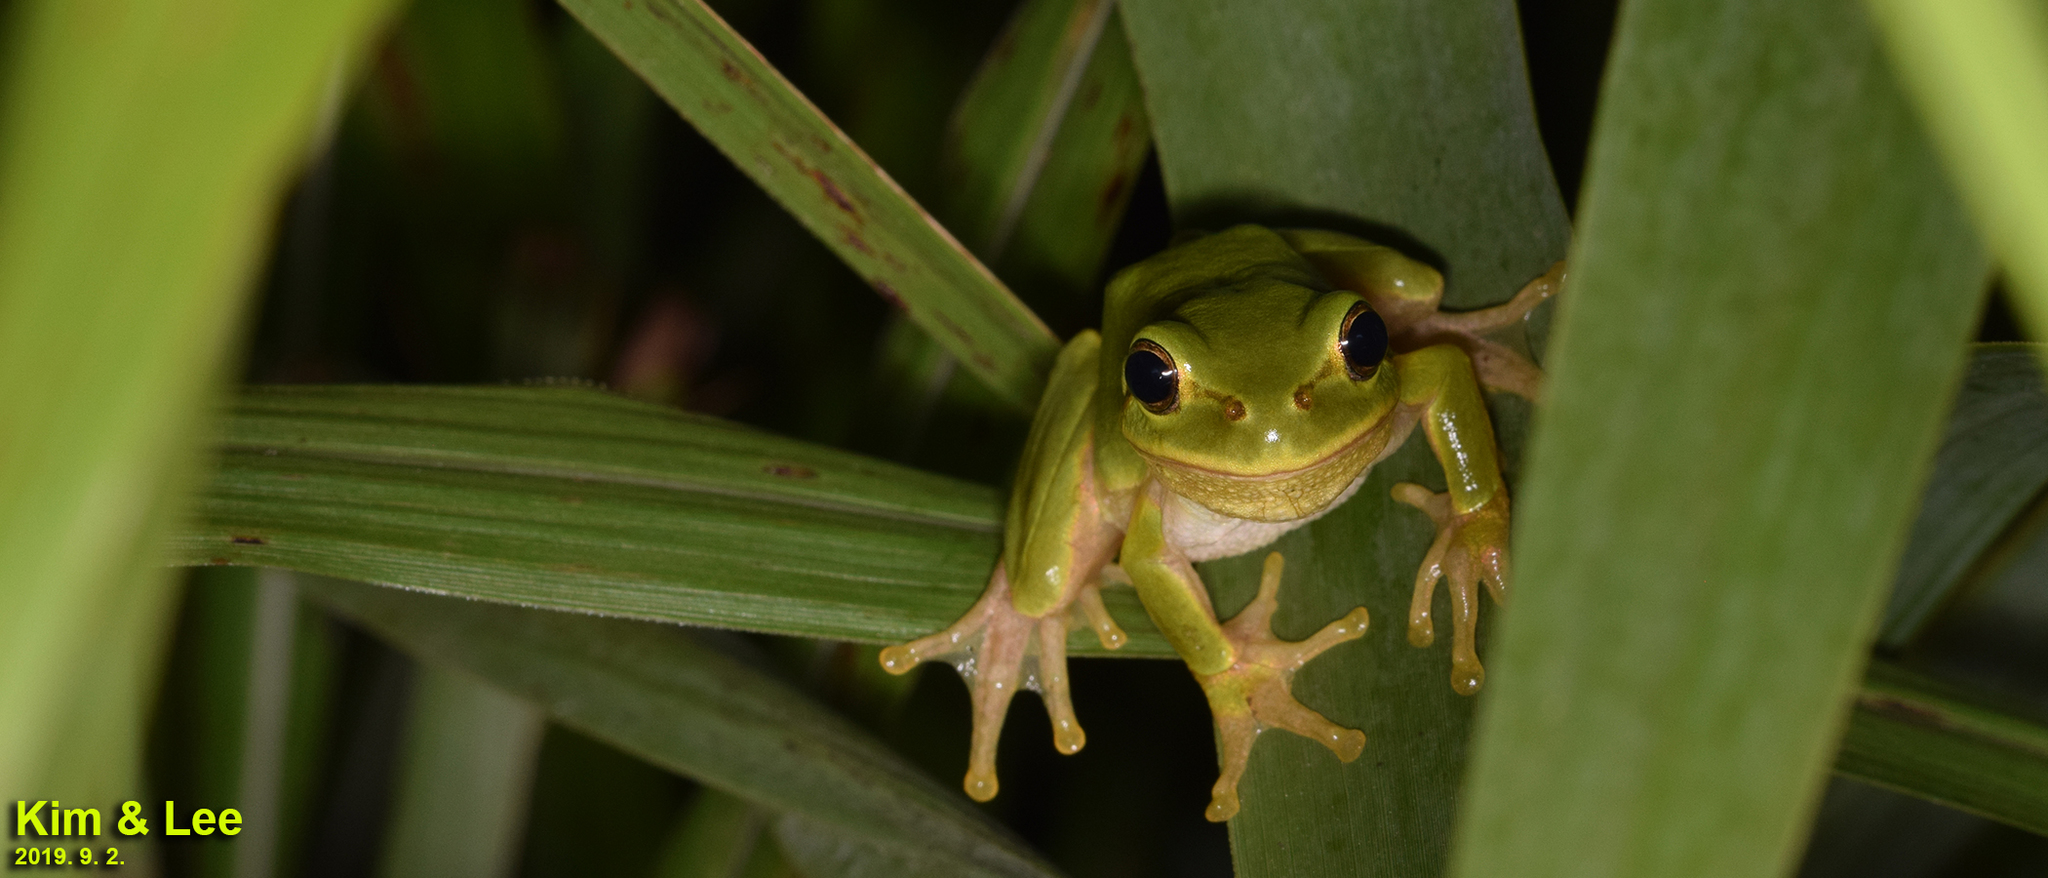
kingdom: Animalia
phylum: Chordata
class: Amphibia
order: Anura
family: Hylidae
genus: Dryophytes
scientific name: Dryophytes japonicus
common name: Japanese treefrog
